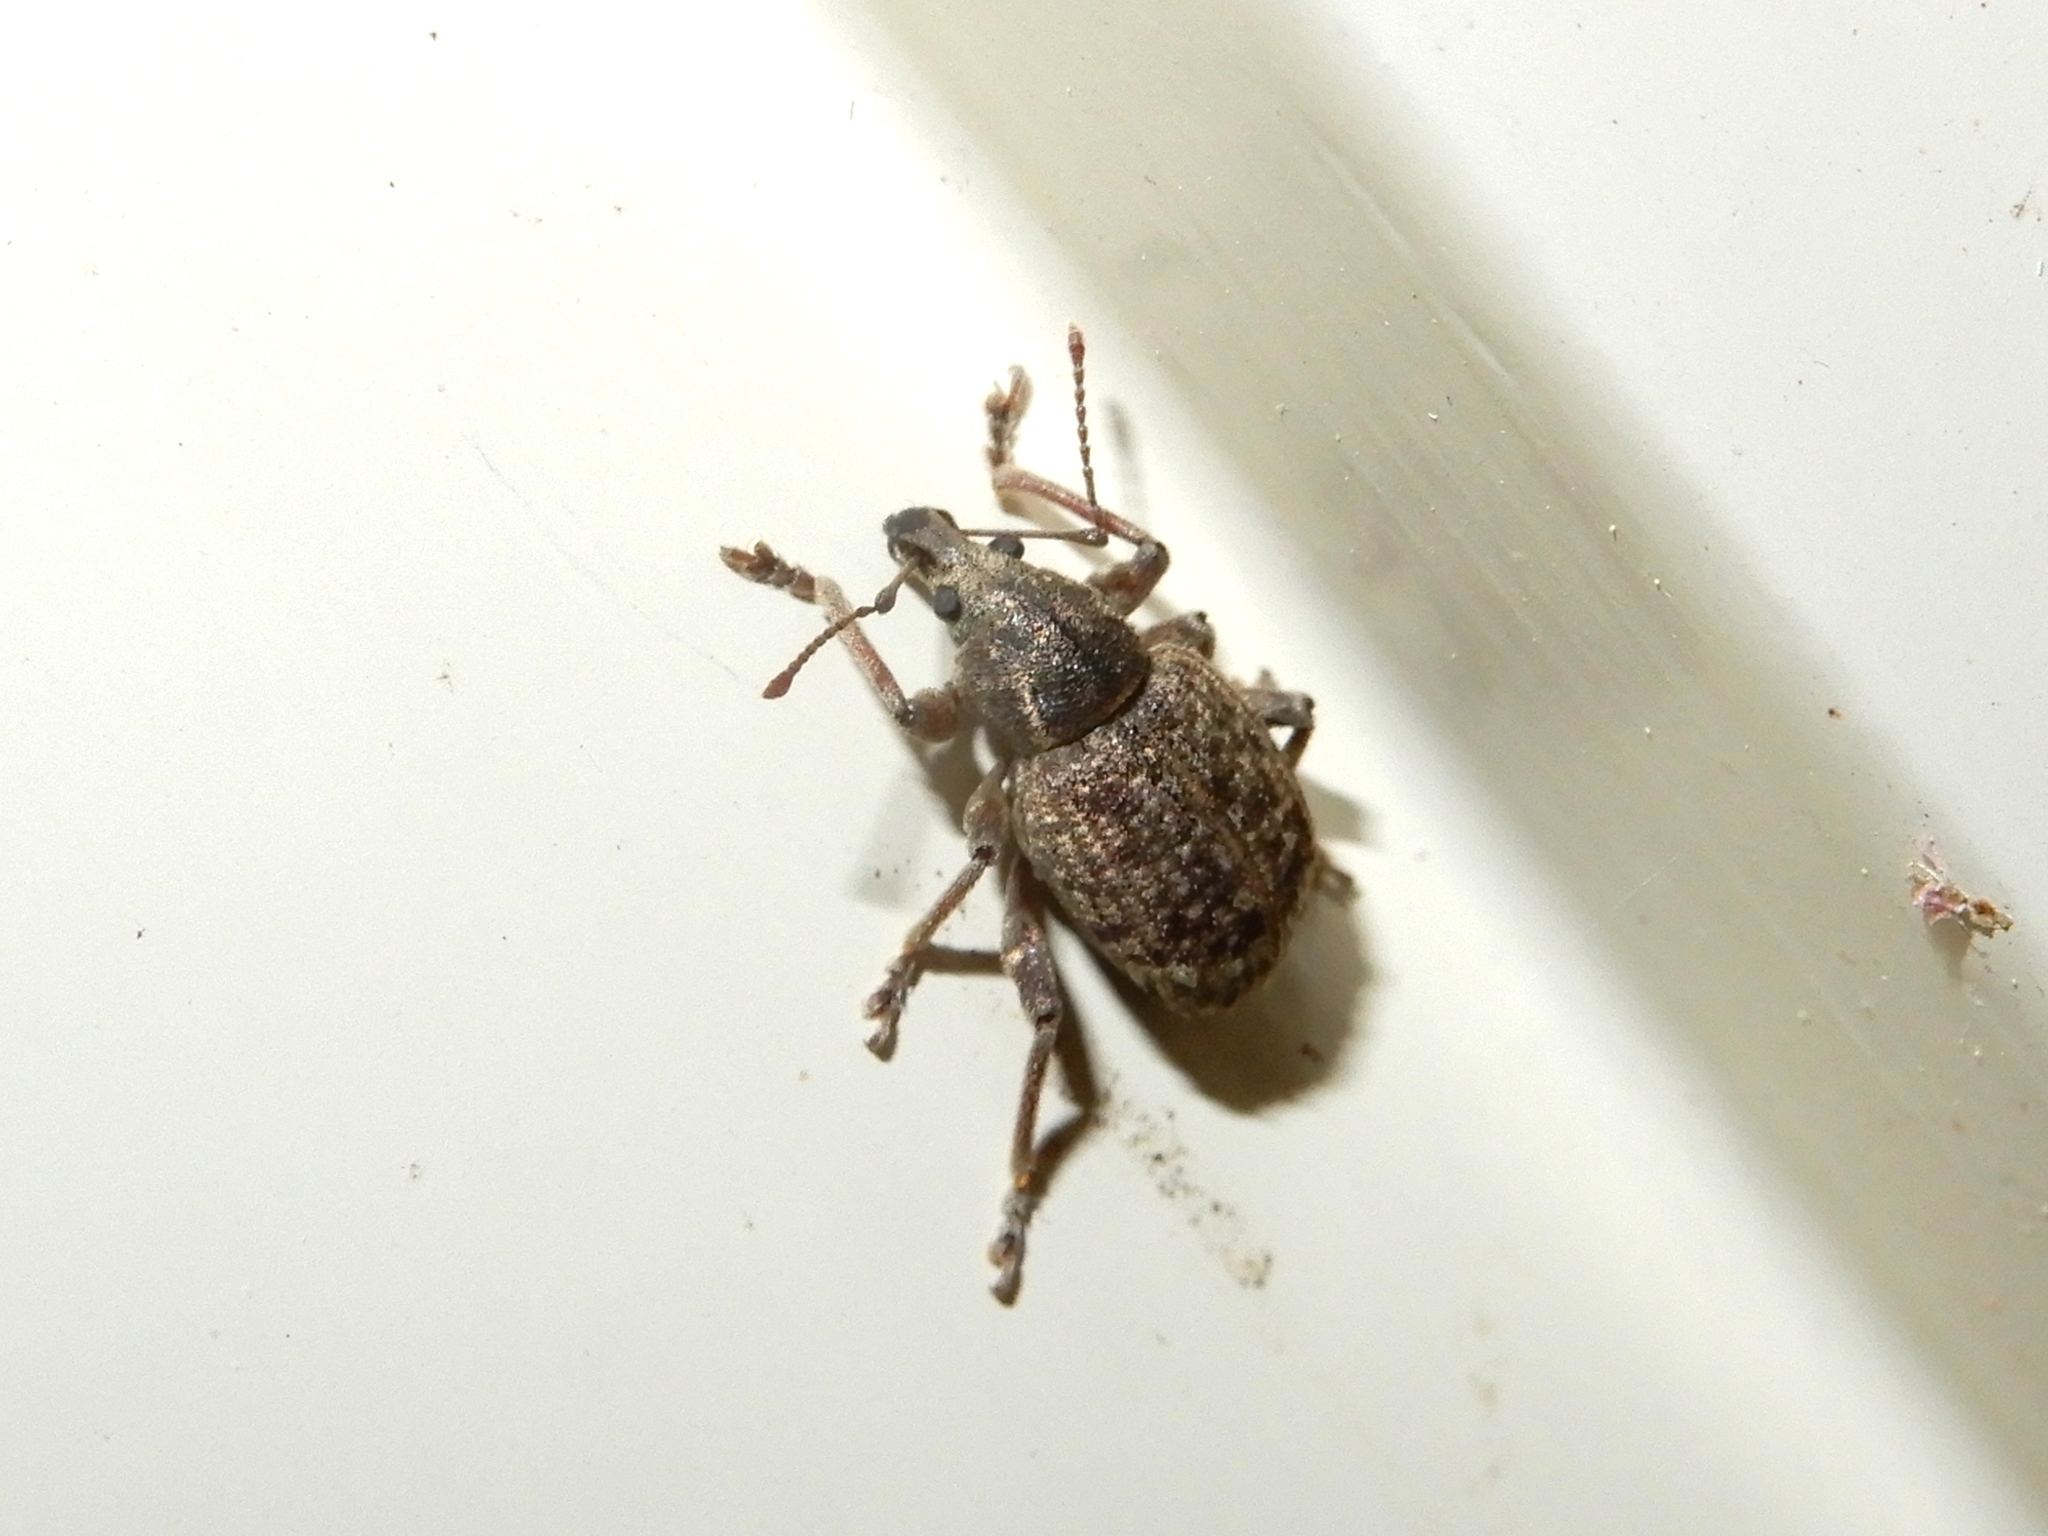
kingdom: Animalia
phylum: Arthropoda
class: Insecta
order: Coleoptera
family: Curculionidae
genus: Phlyctinus
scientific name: Phlyctinus callosus
